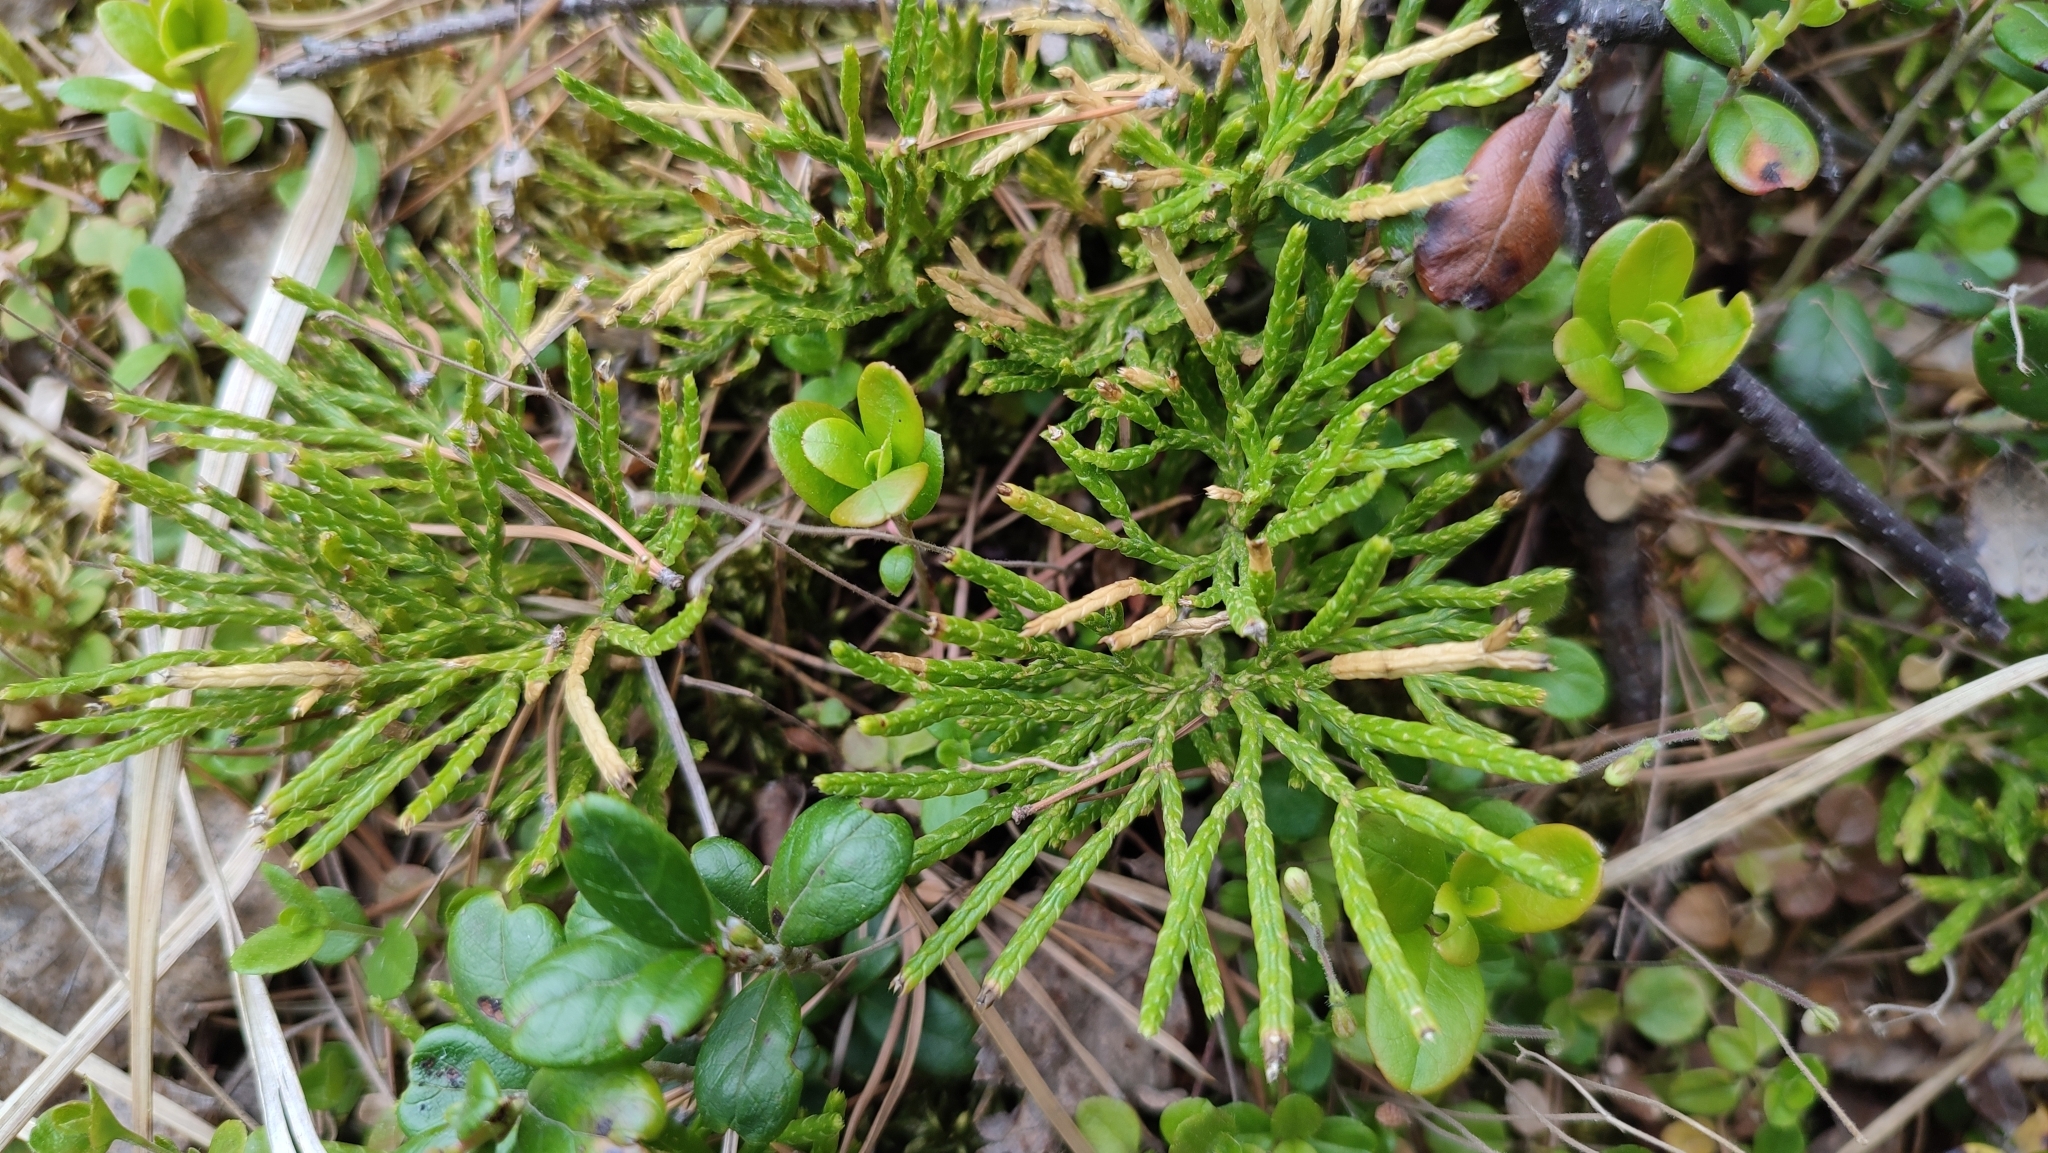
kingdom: Plantae
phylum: Tracheophyta
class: Lycopodiopsida
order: Lycopodiales
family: Lycopodiaceae
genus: Diphasiastrum
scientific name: Diphasiastrum complanatum
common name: Northern running-pine
